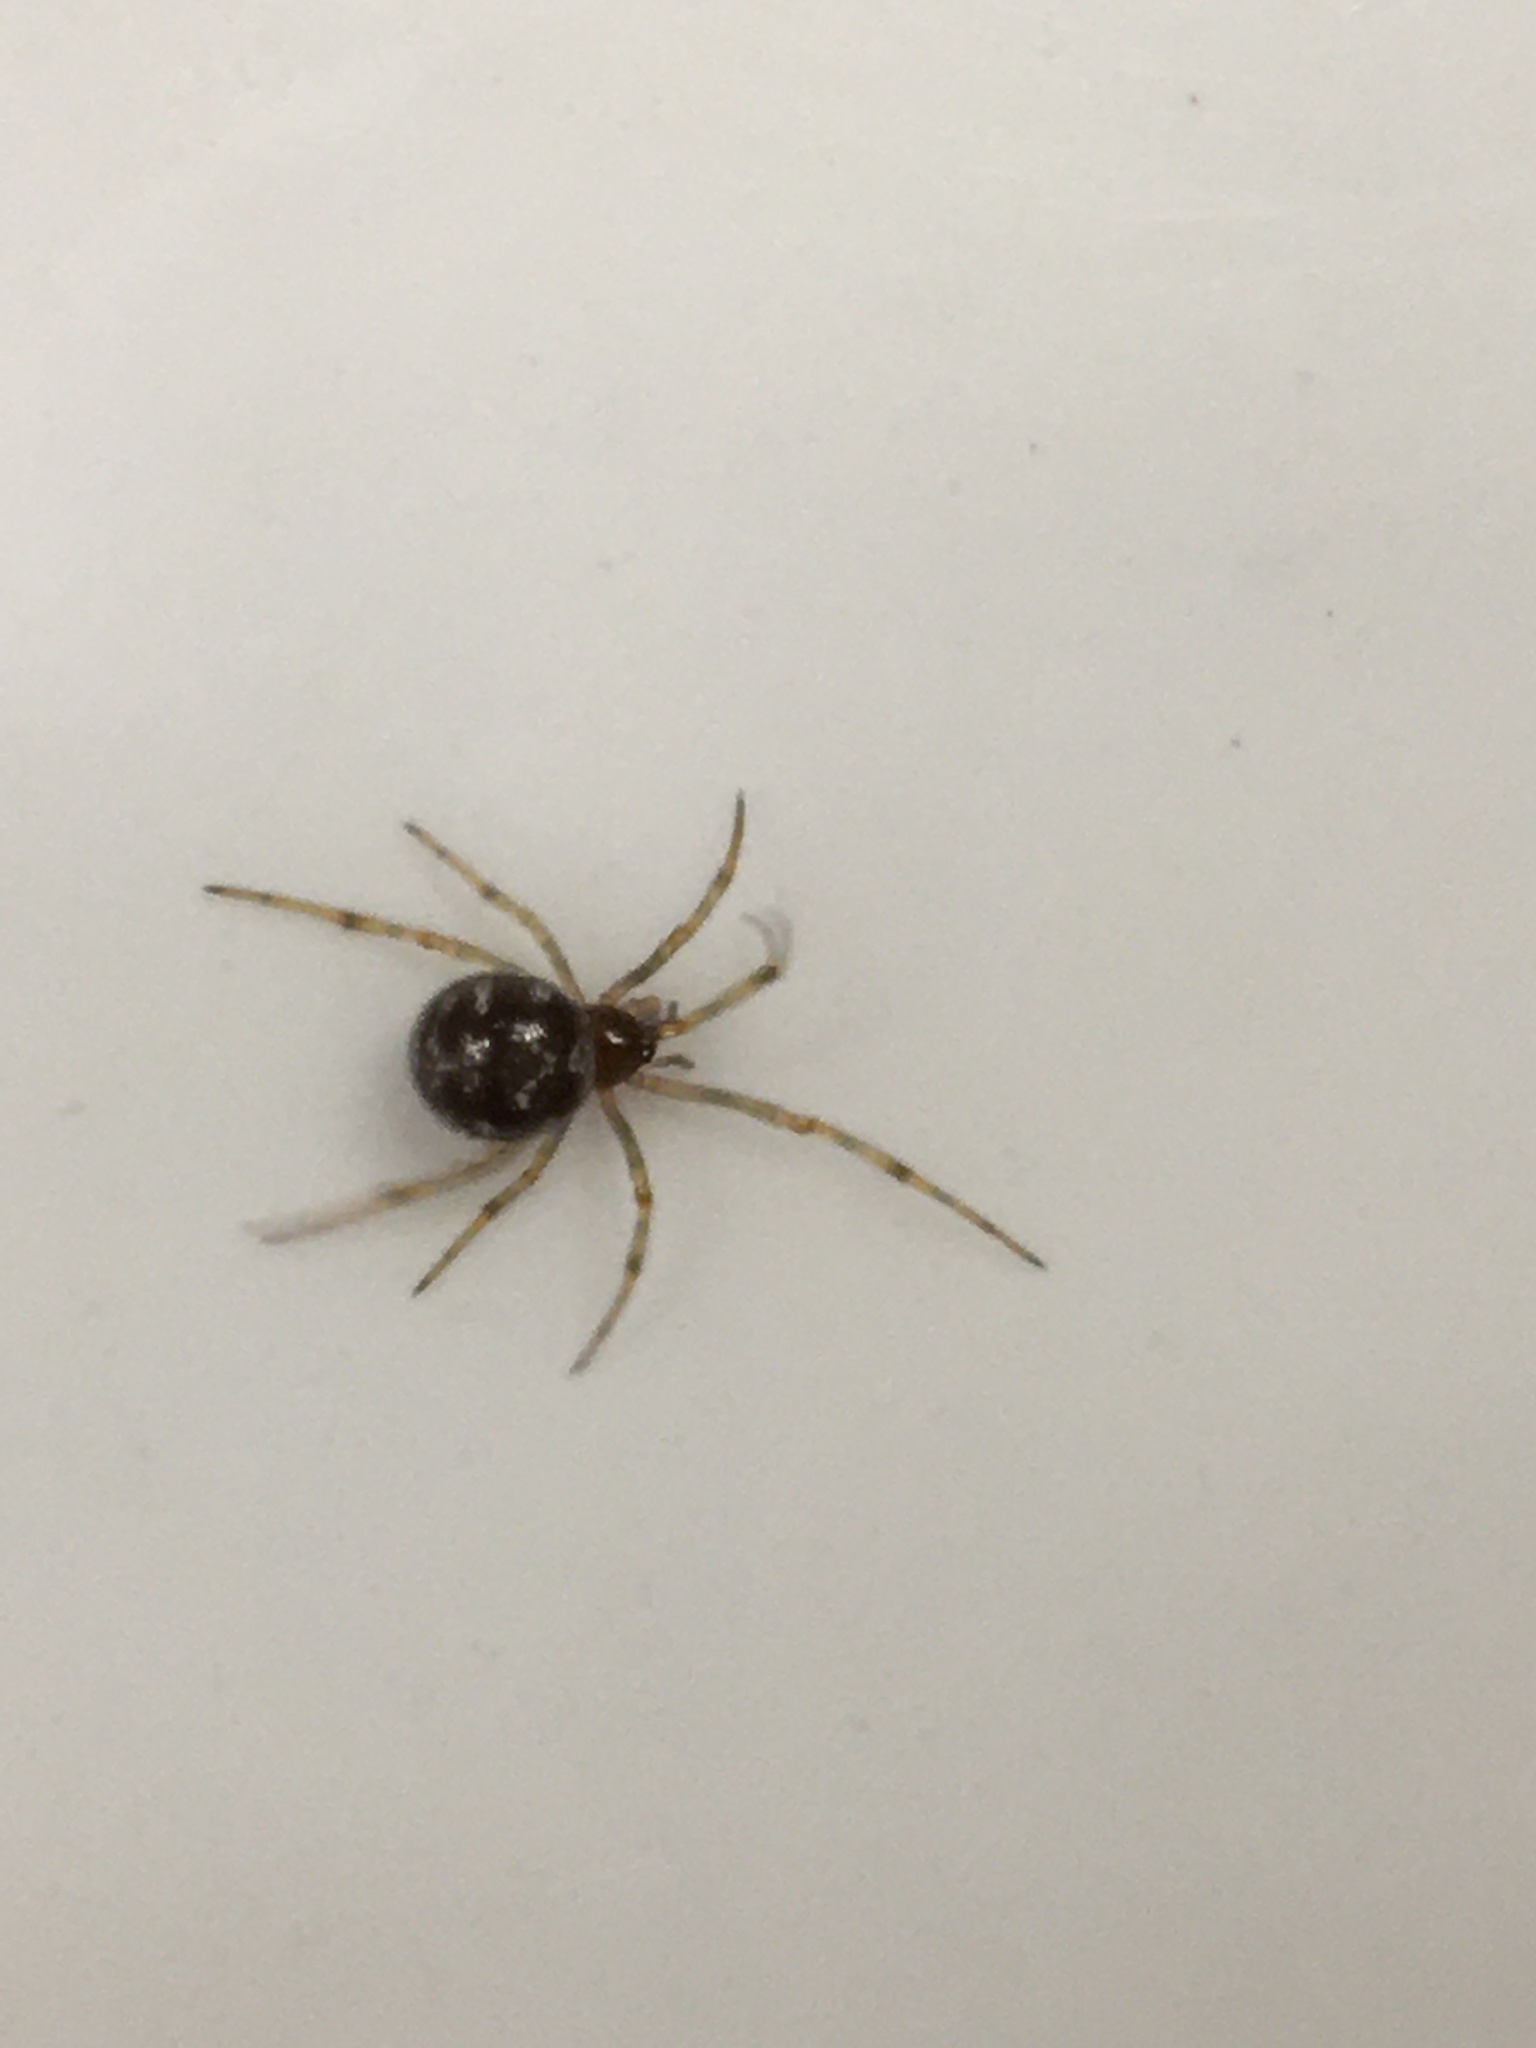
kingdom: Animalia
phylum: Arthropoda
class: Arachnida
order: Araneae
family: Theridiidae
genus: Steatoda
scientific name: Steatoda triangulosa
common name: Triangulate bud spider
